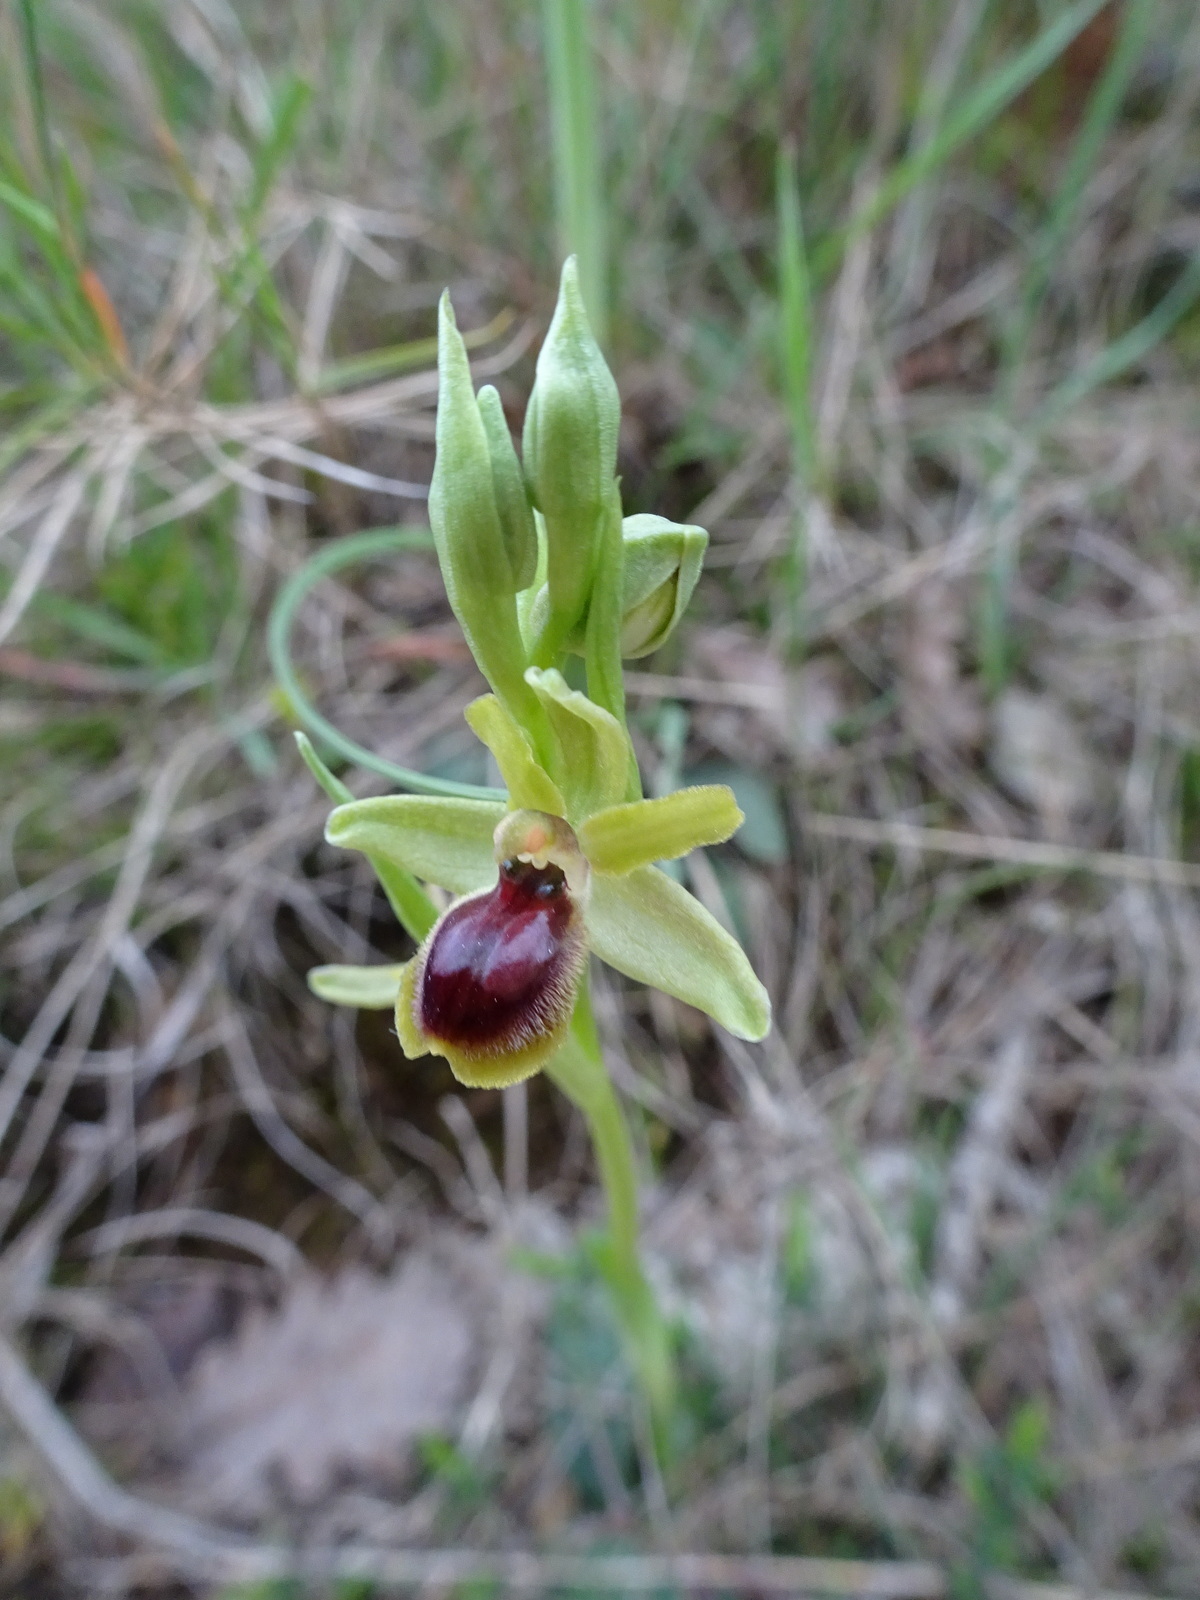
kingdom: Plantae
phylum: Tracheophyta
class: Liliopsida
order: Asparagales
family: Orchidaceae
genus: Ophrys
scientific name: Ophrys araneola
